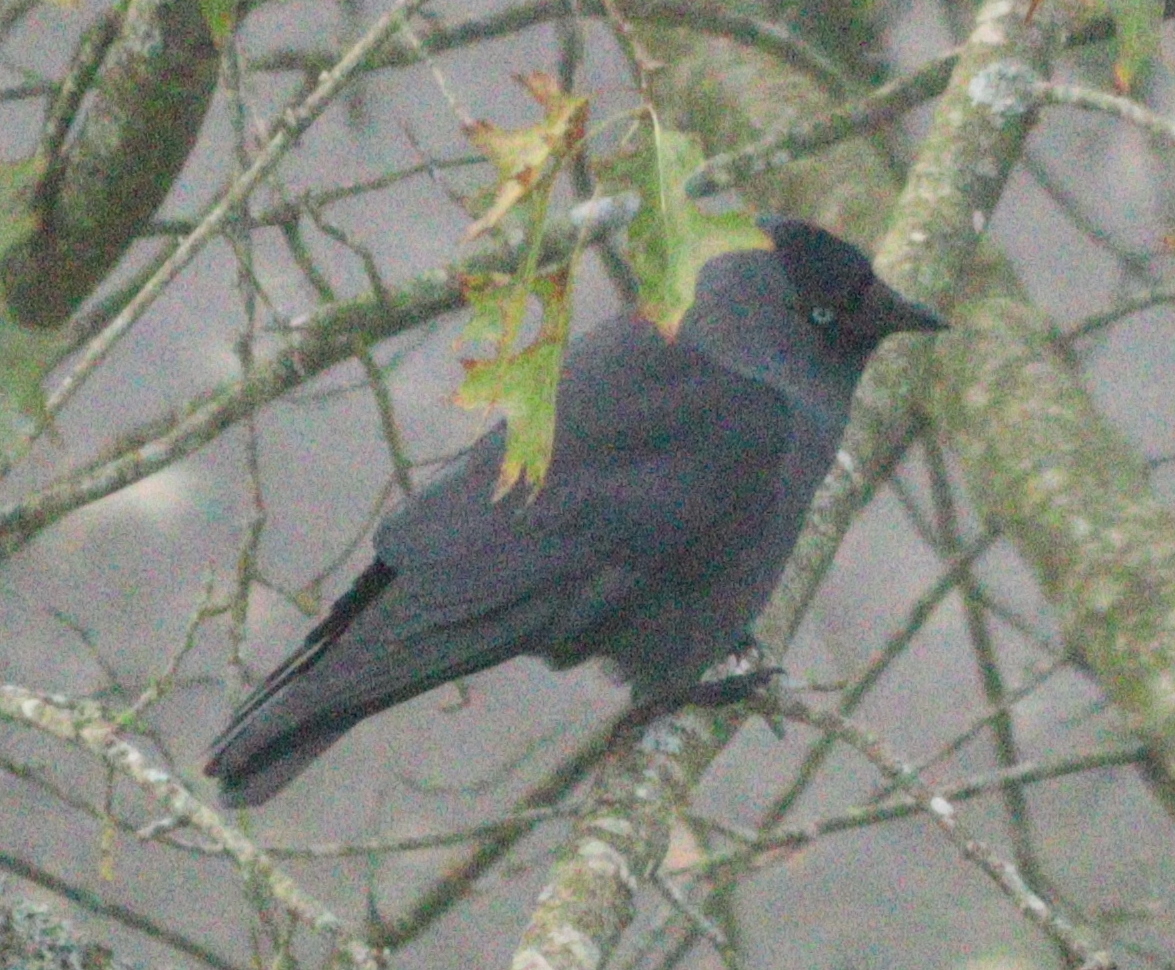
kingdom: Animalia
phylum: Chordata
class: Aves
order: Passeriformes
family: Corvidae
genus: Coloeus
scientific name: Coloeus monedula
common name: Western jackdaw
